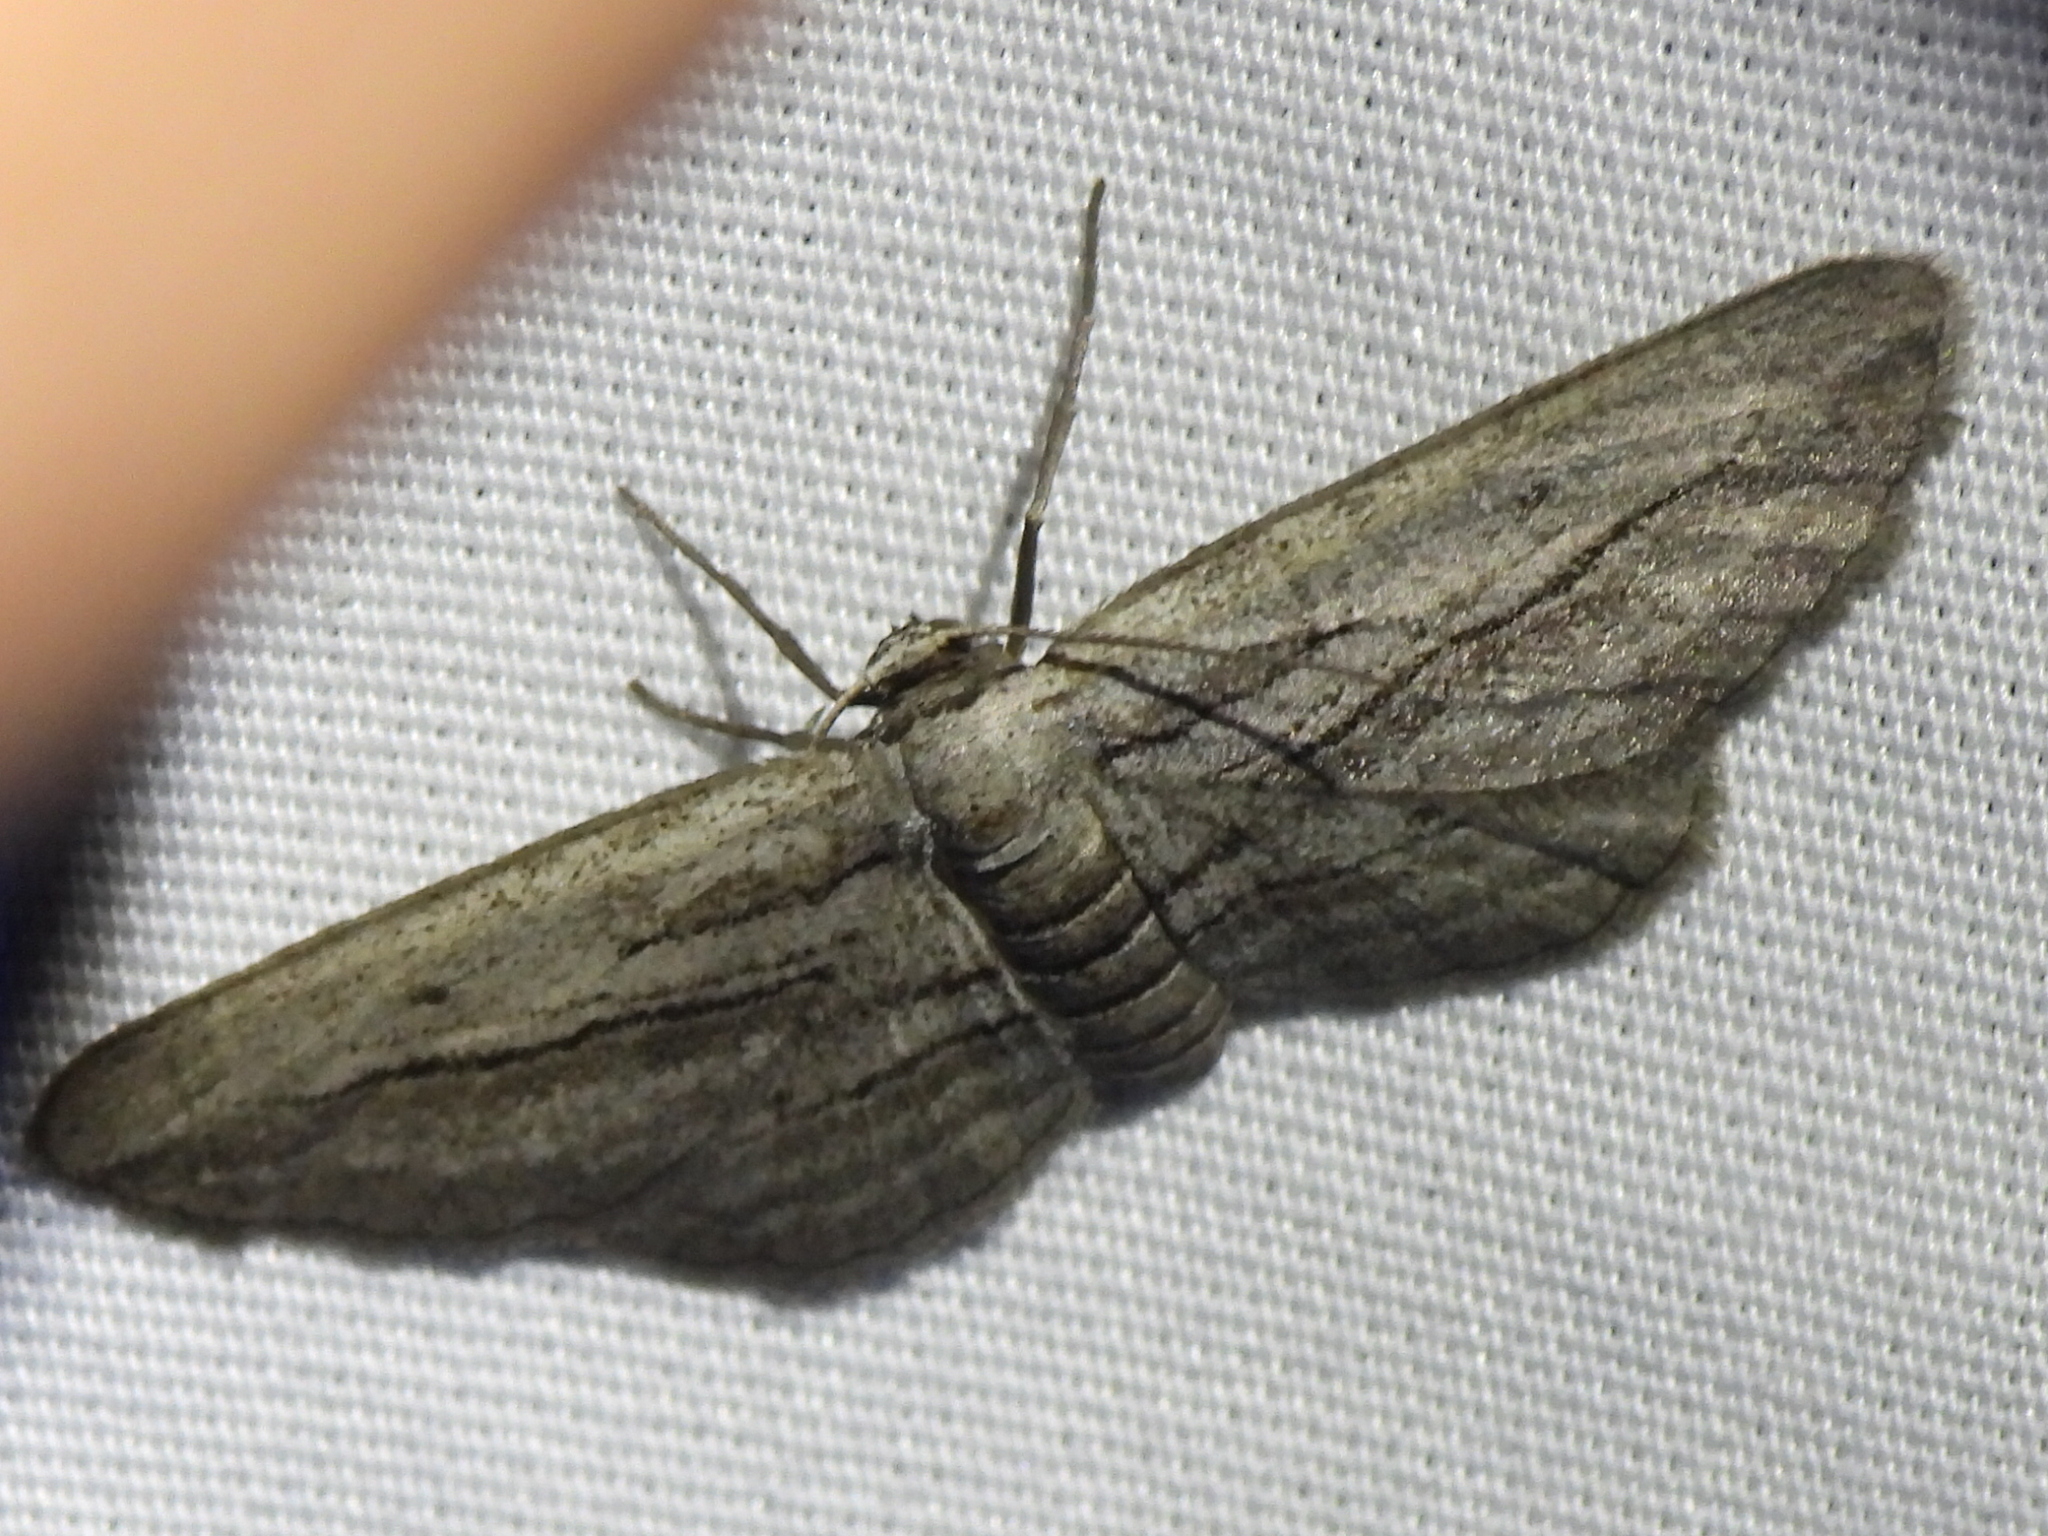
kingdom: Animalia
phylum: Arthropoda
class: Insecta
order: Lepidoptera
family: Geometridae
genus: Glena
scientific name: Glena quinquelinearia
